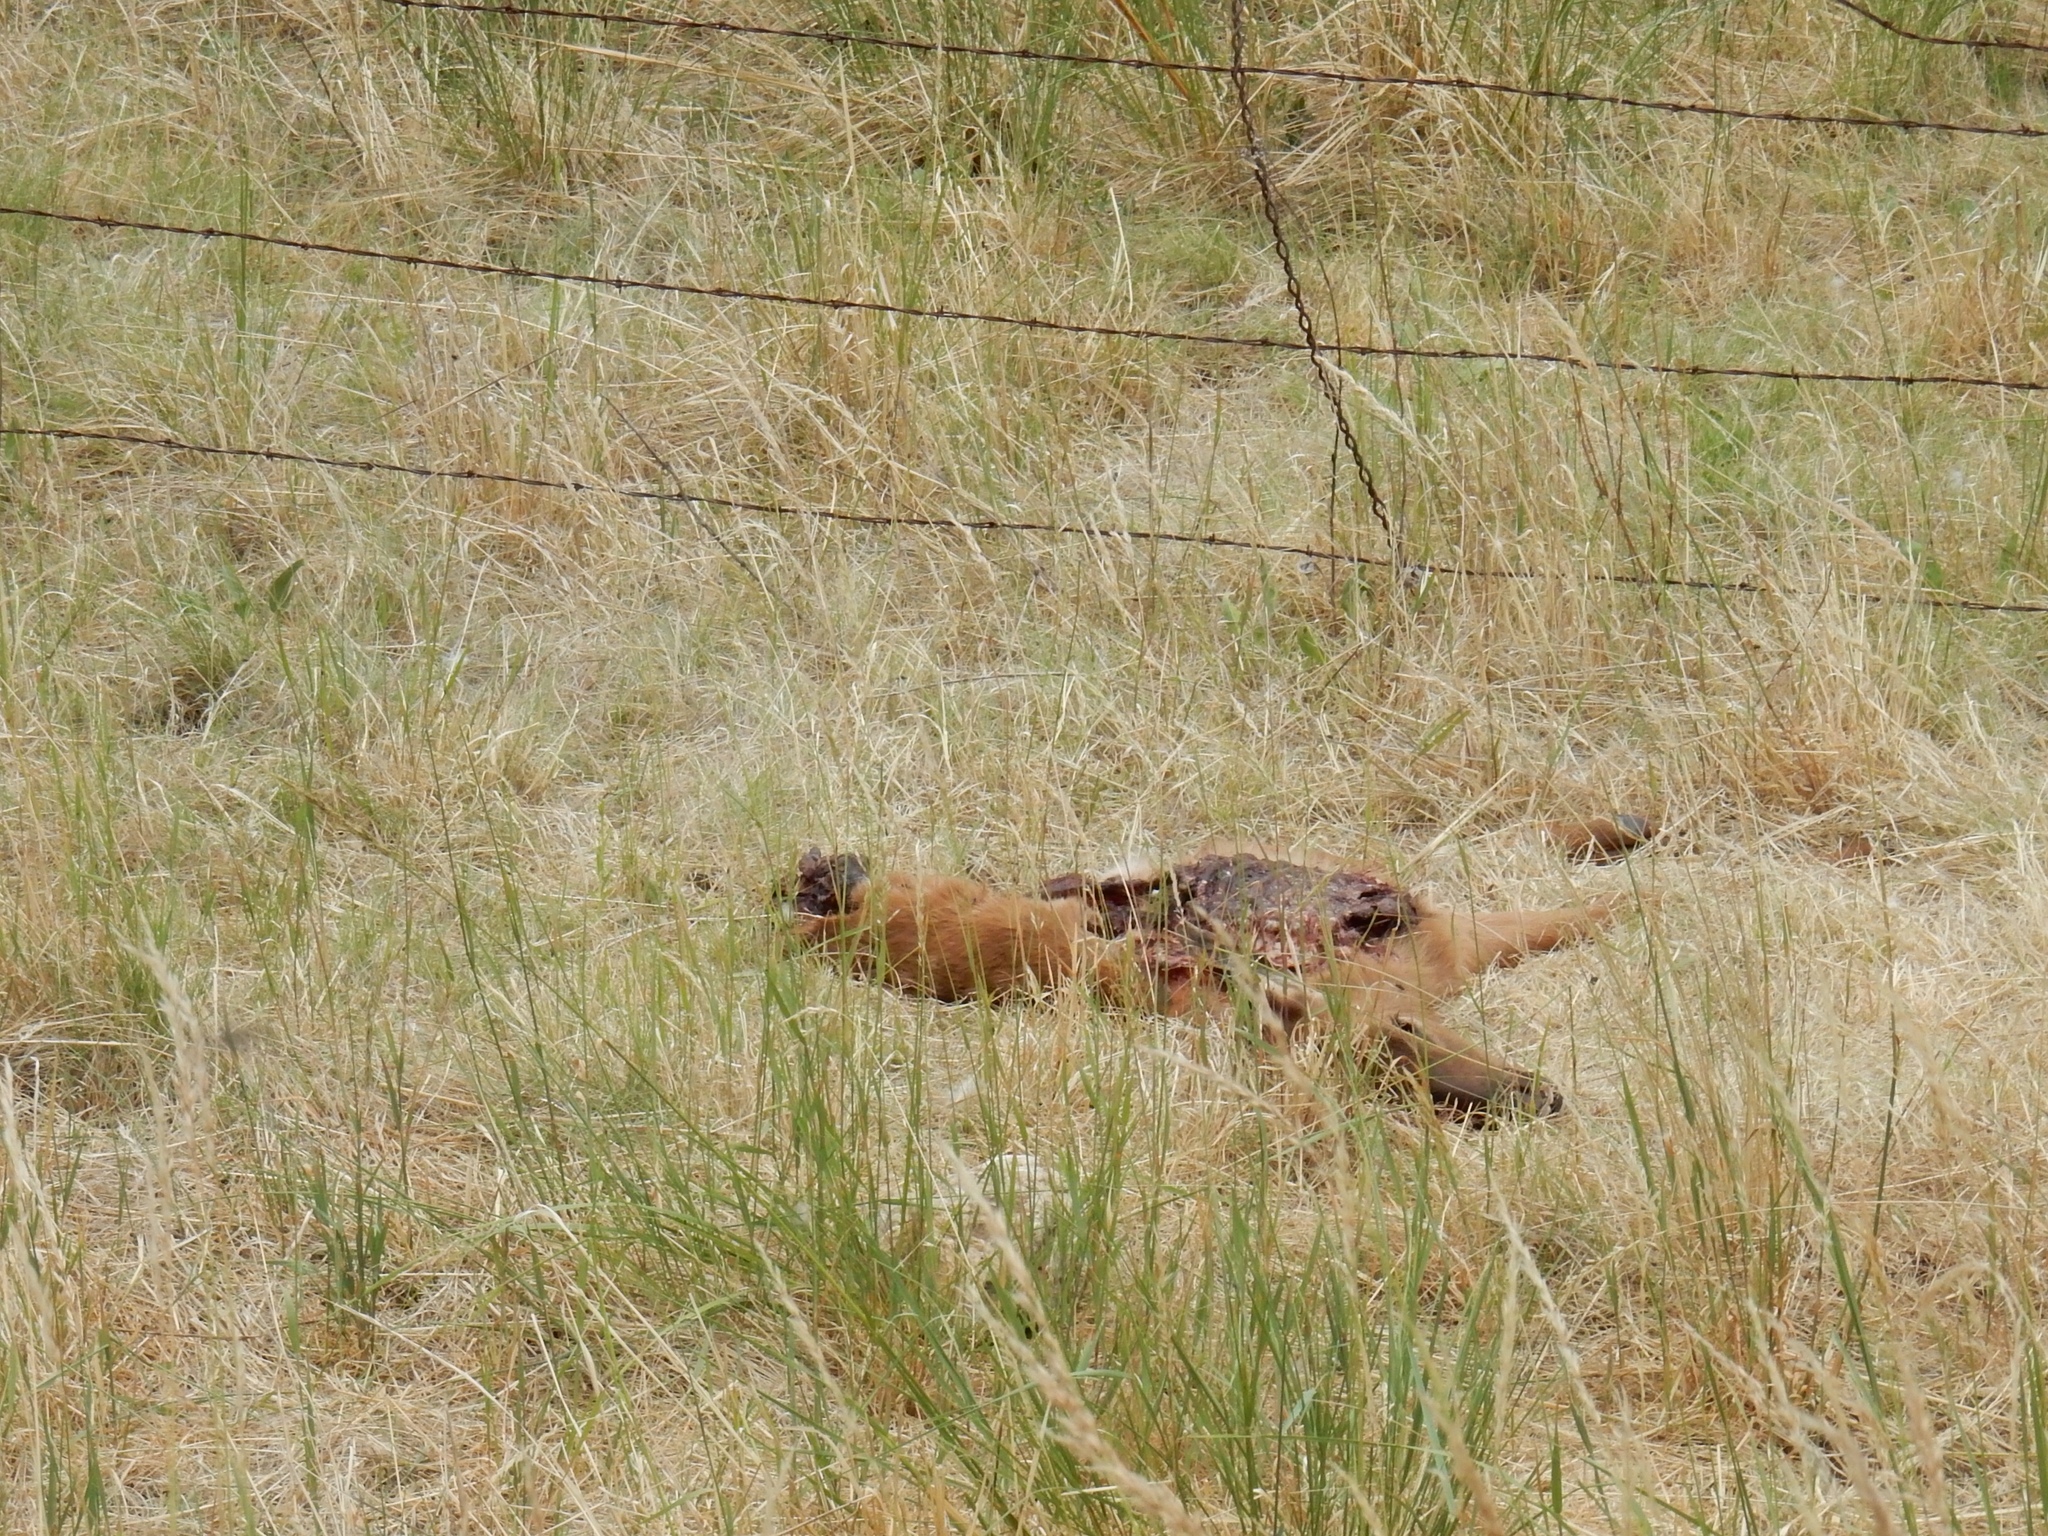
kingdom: Animalia
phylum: Chordata
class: Mammalia
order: Artiodactyla
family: Cervidae
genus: Cervus
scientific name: Cervus elaphus
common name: Red deer
